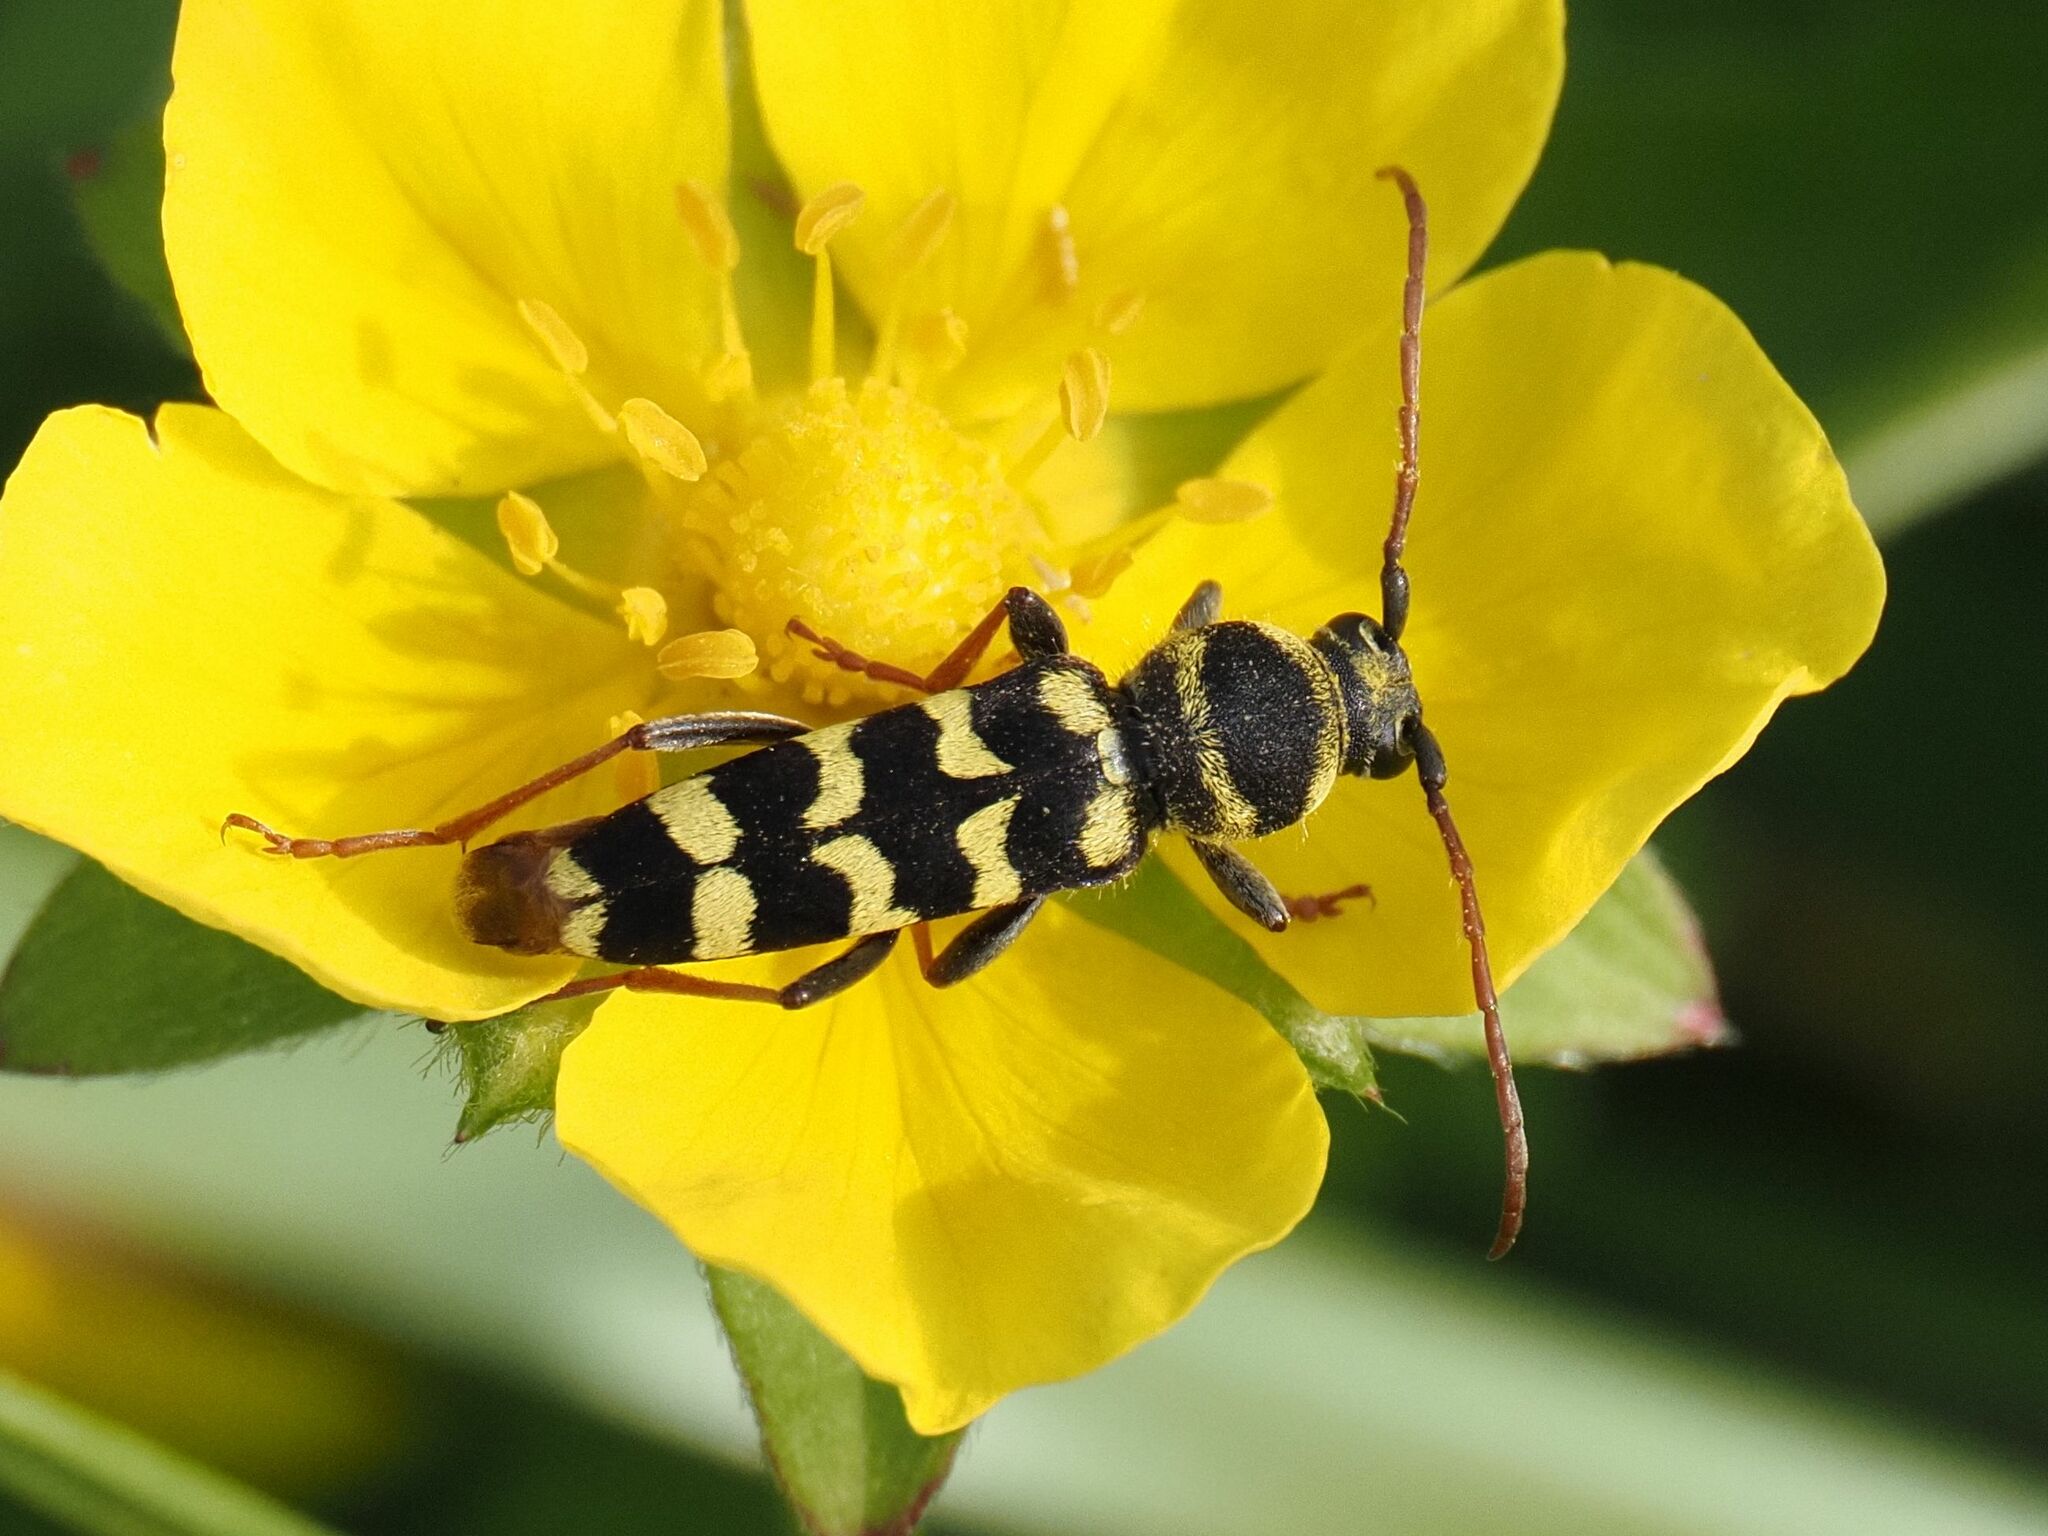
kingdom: Animalia
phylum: Arthropoda
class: Insecta
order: Coleoptera
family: Cerambycidae
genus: Plagionotus
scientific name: Plagionotus floralis
